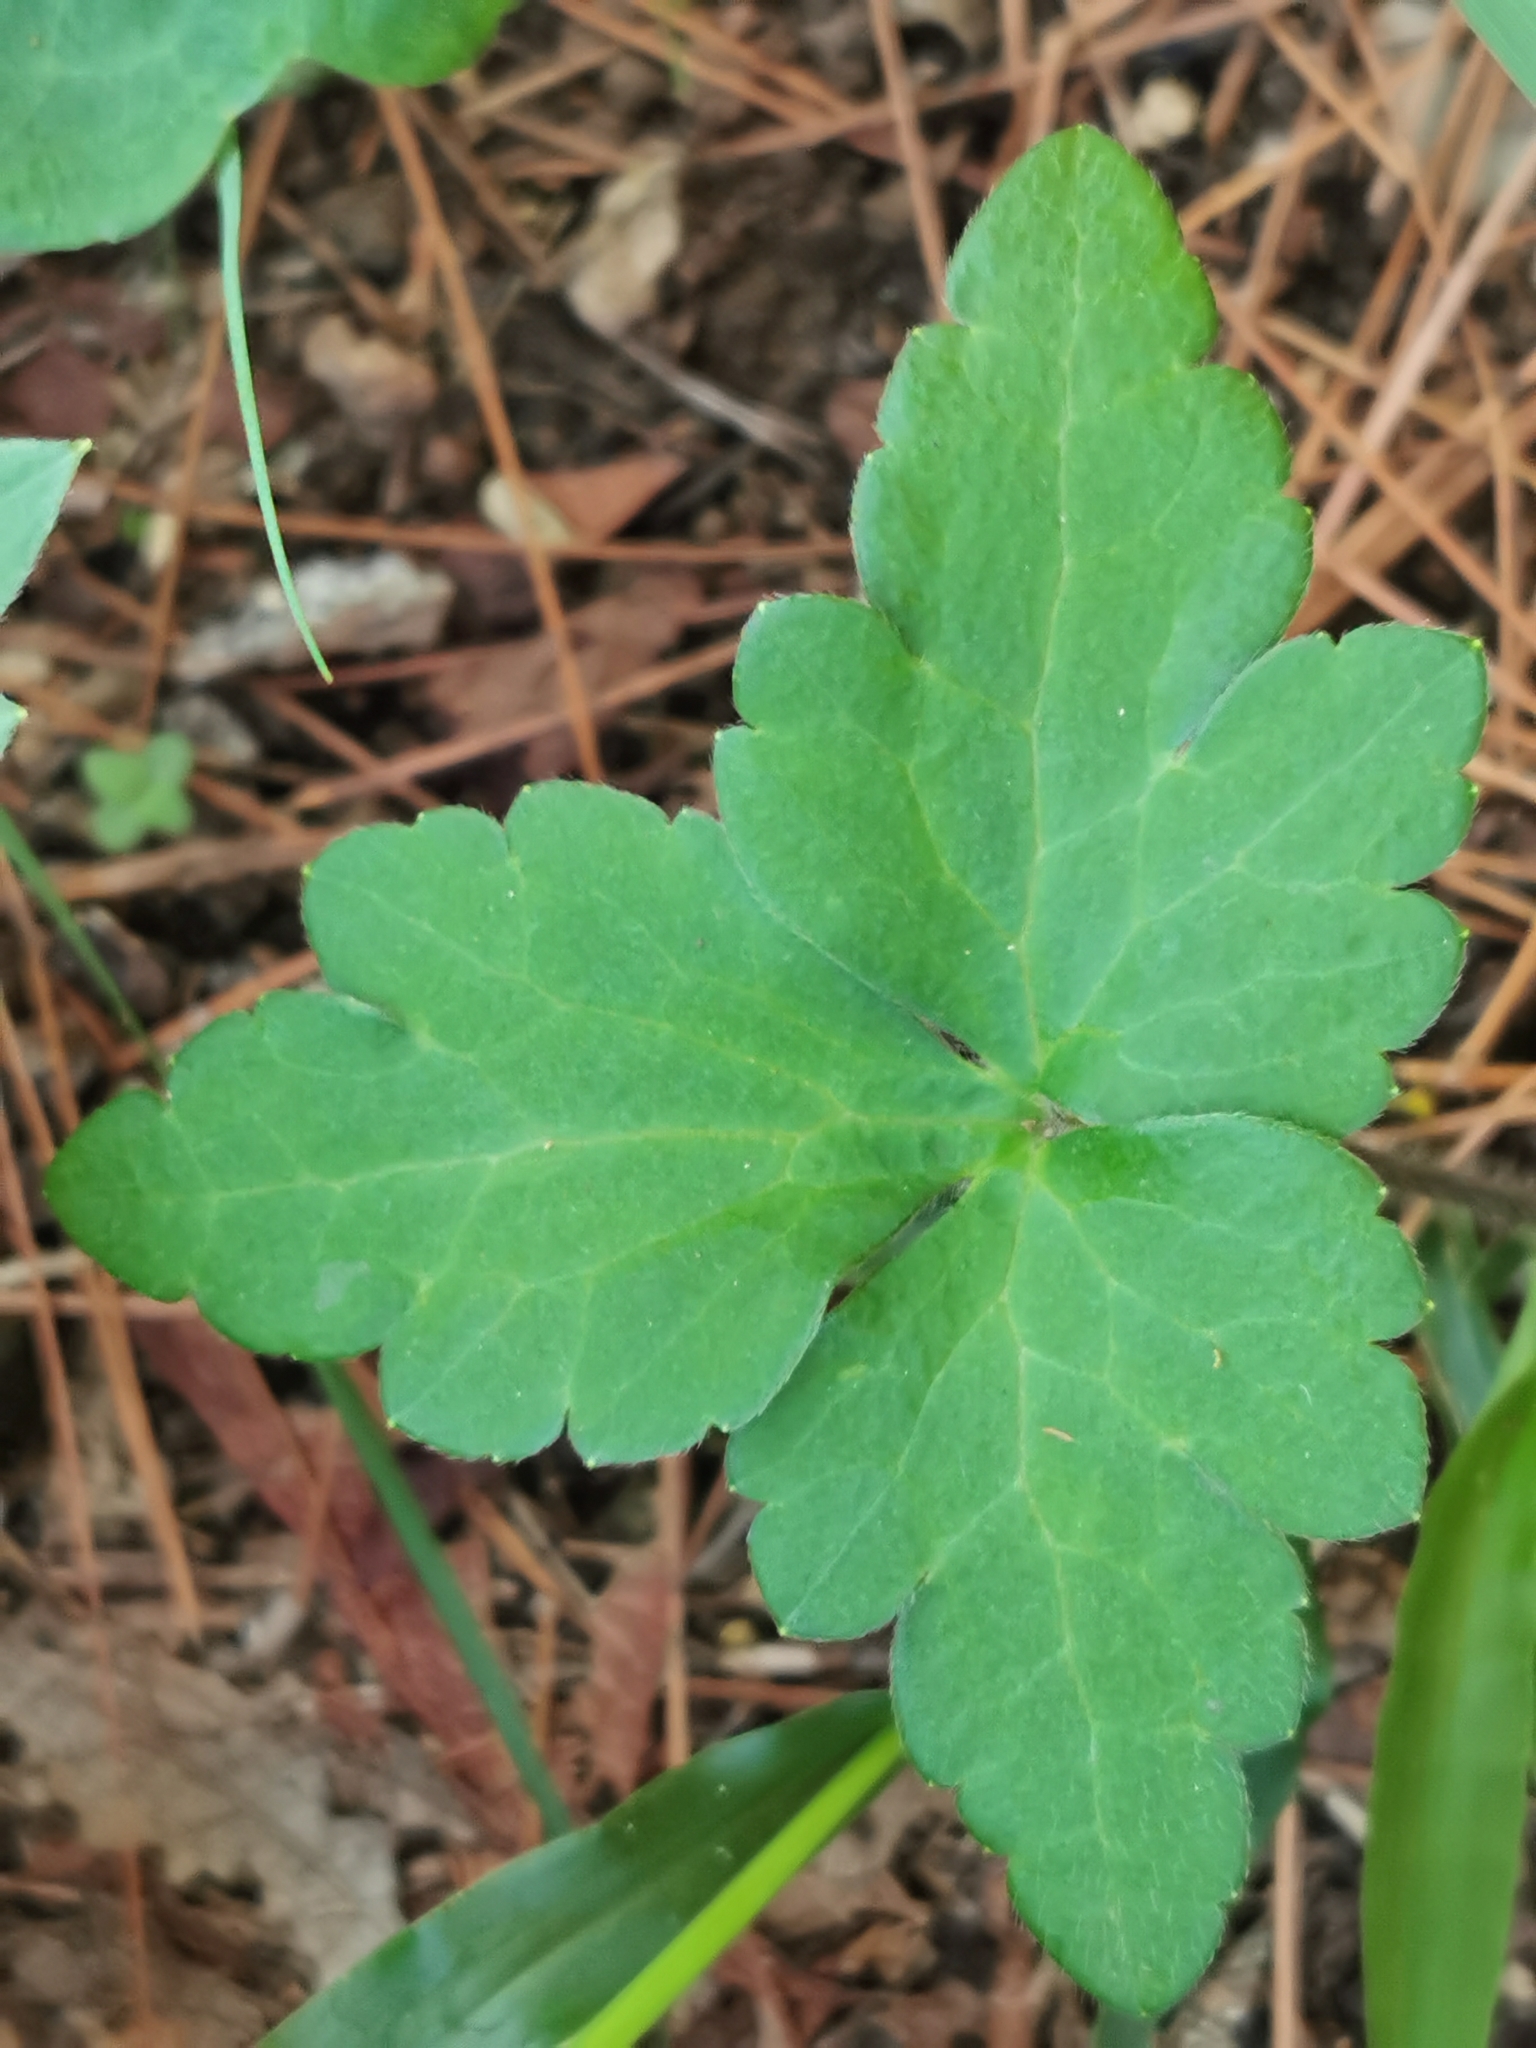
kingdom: Plantae
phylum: Tracheophyta
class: Magnoliopsida
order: Ranunculales
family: Ranunculaceae
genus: Ranunculus
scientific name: Ranunculus sierrae-orientalis
